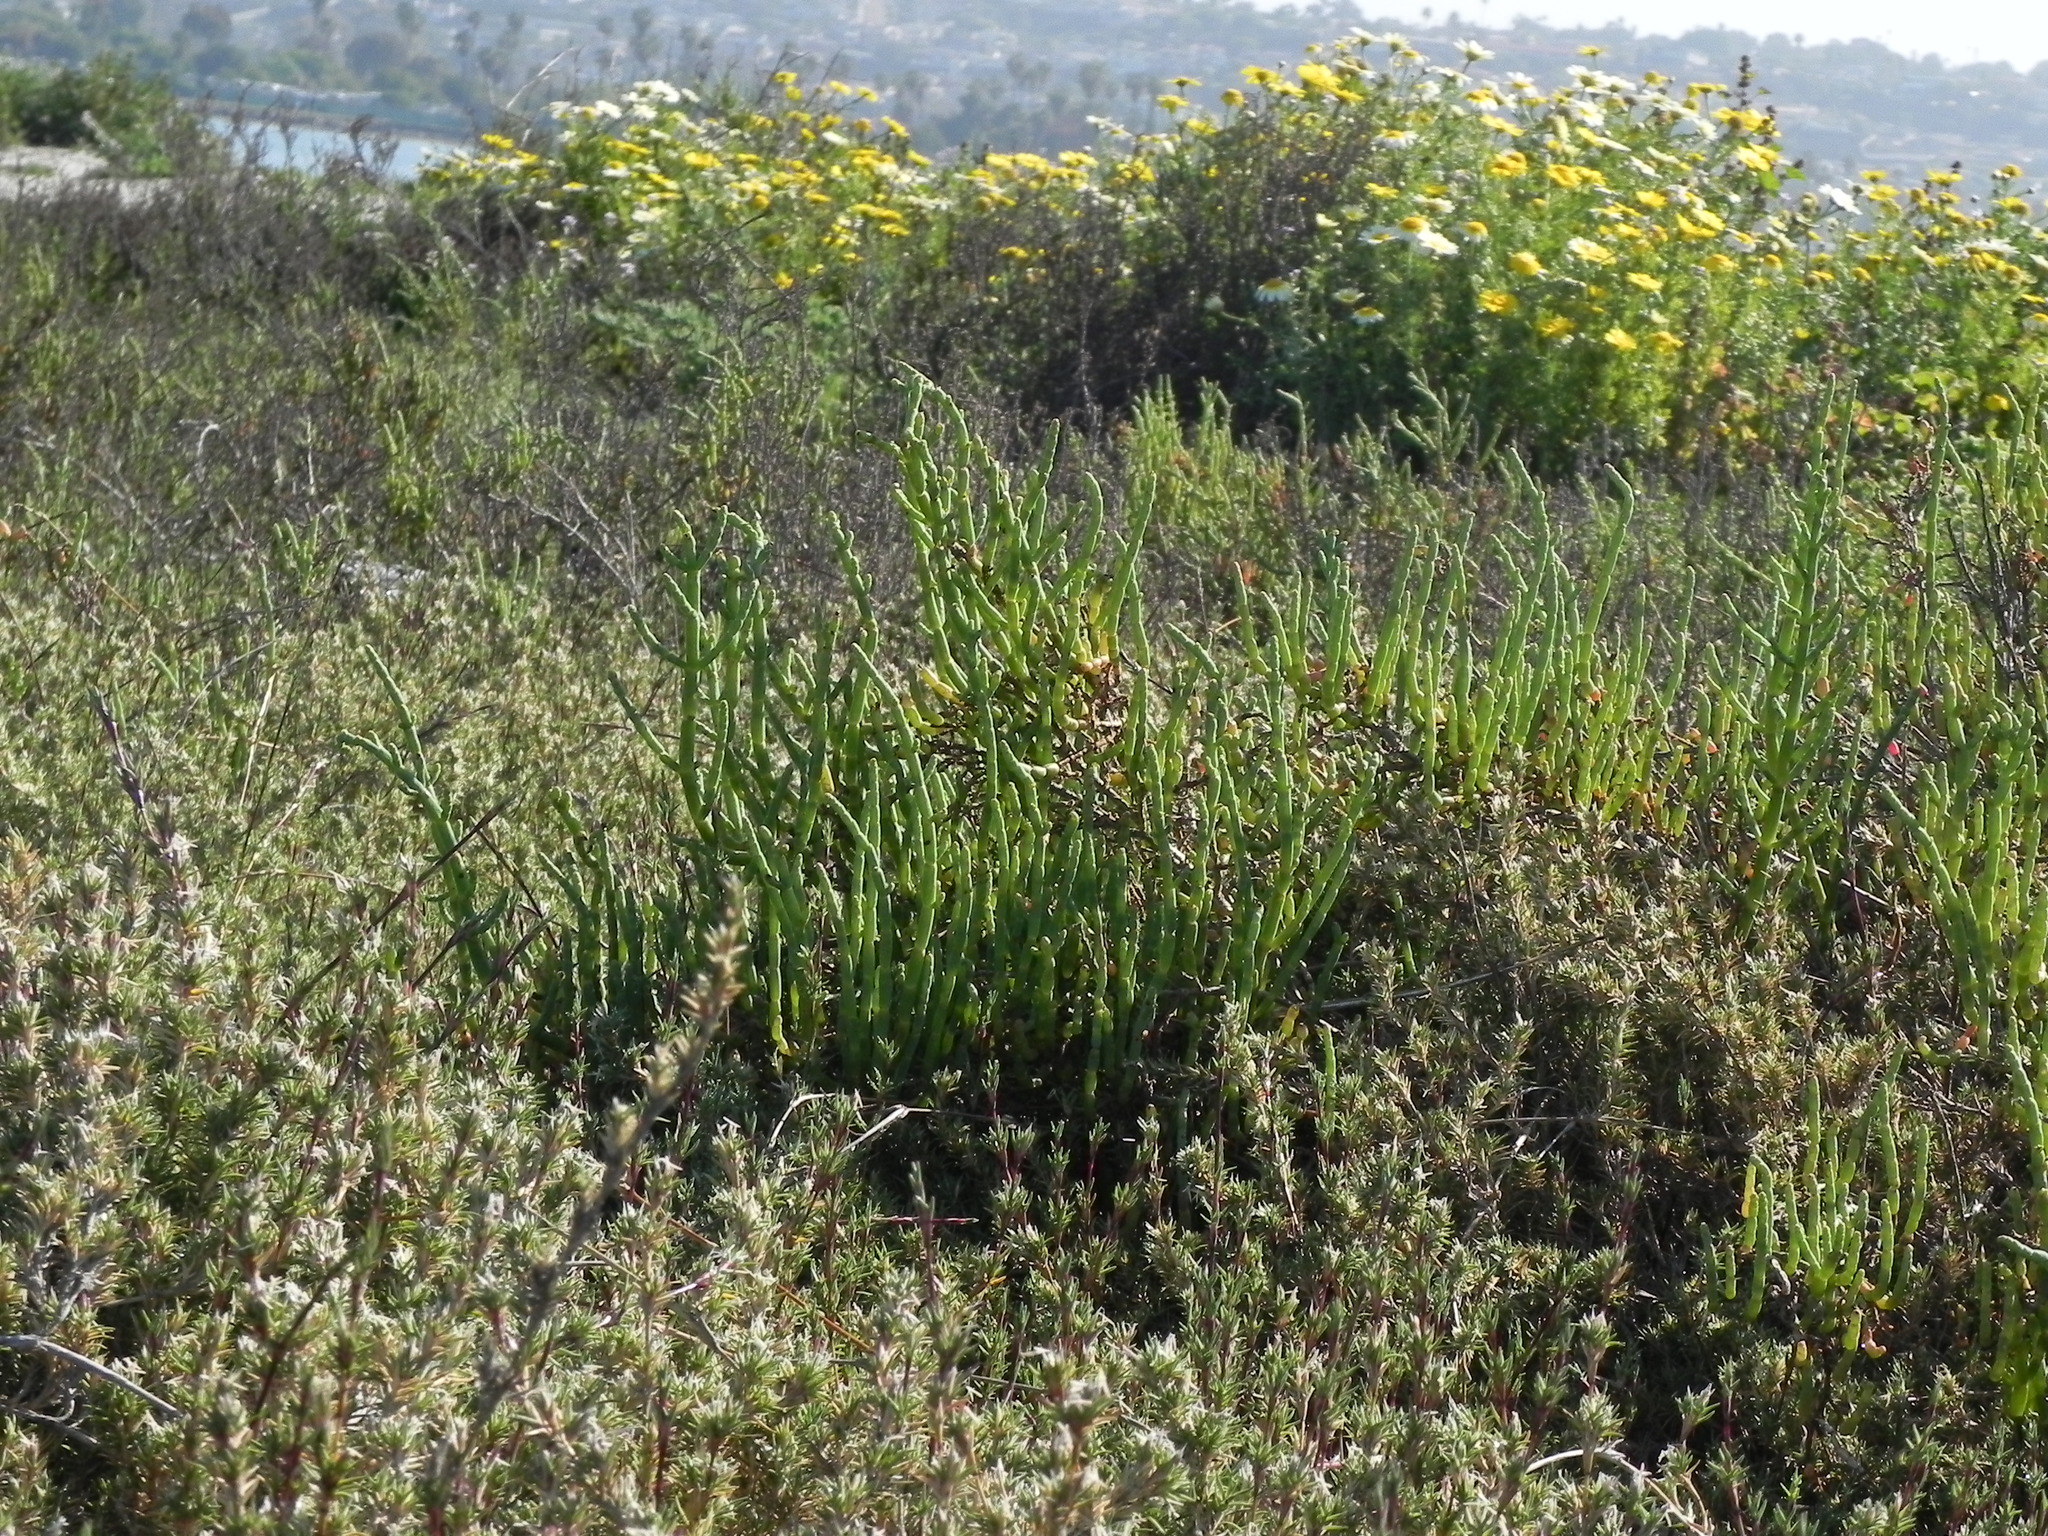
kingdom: Plantae
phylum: Tracheophyta
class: Magnoliopsida
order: Caryophyllales
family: Amaranthaceae
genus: Salicornia
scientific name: Salicornia pacifica
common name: Pacific glasswort
